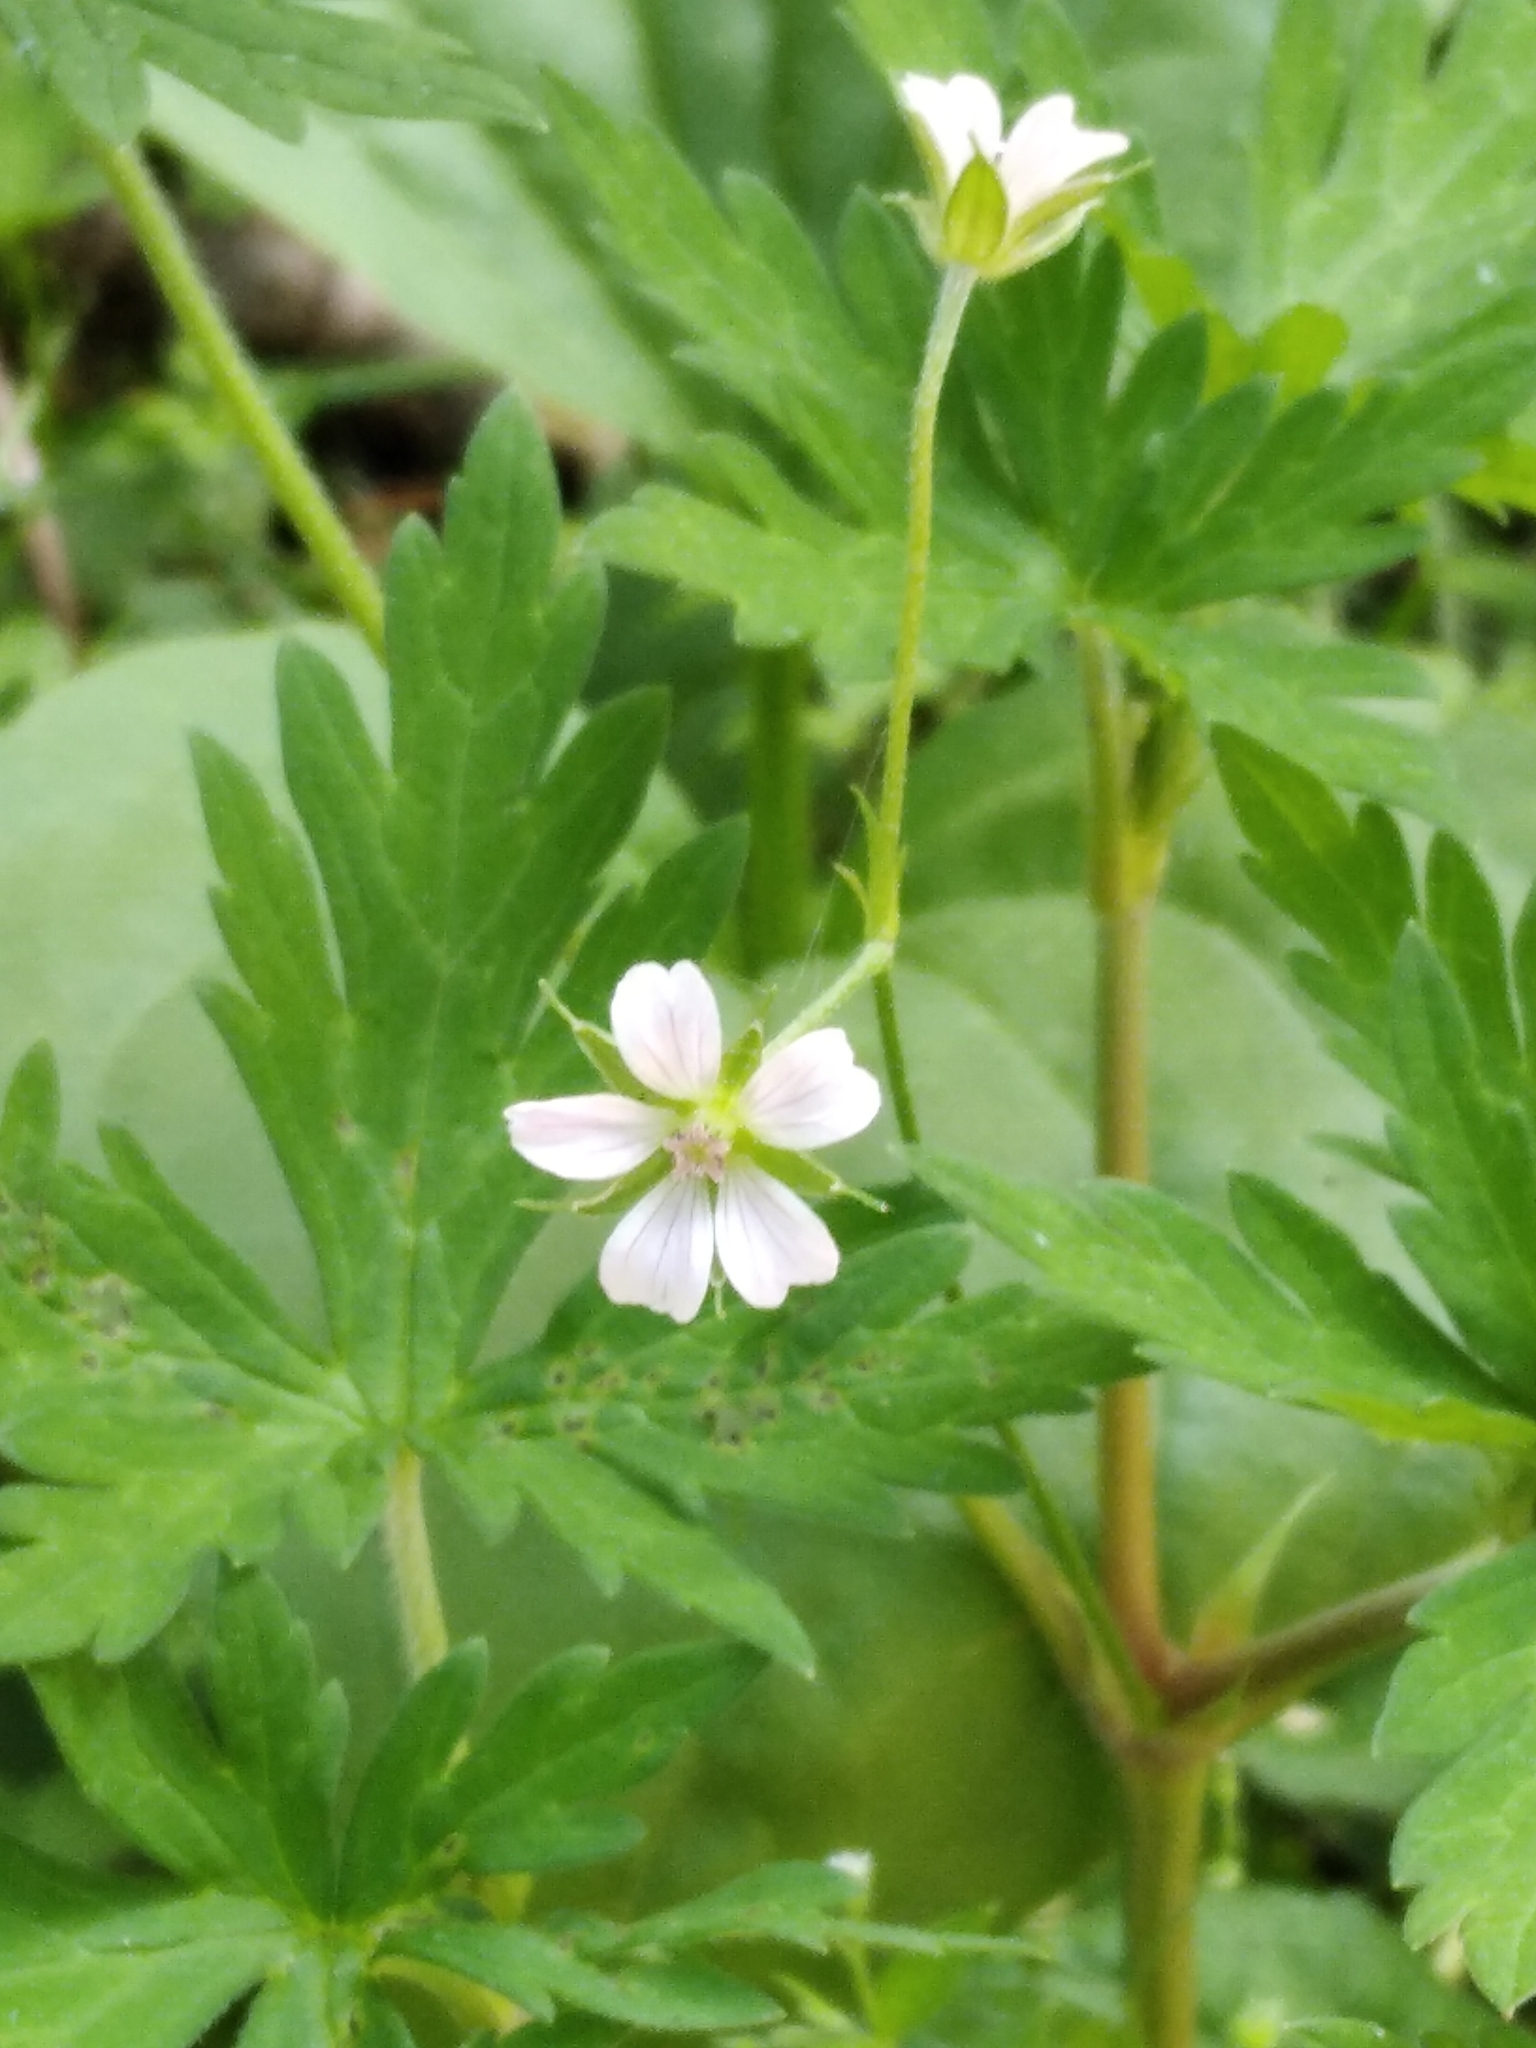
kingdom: Plantae
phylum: Tracheophyta
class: Magnoliopsida
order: Geraniales
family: Geraniaceae
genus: Geranium
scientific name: Geranium sibiricum
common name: Siberian crane's-bill
